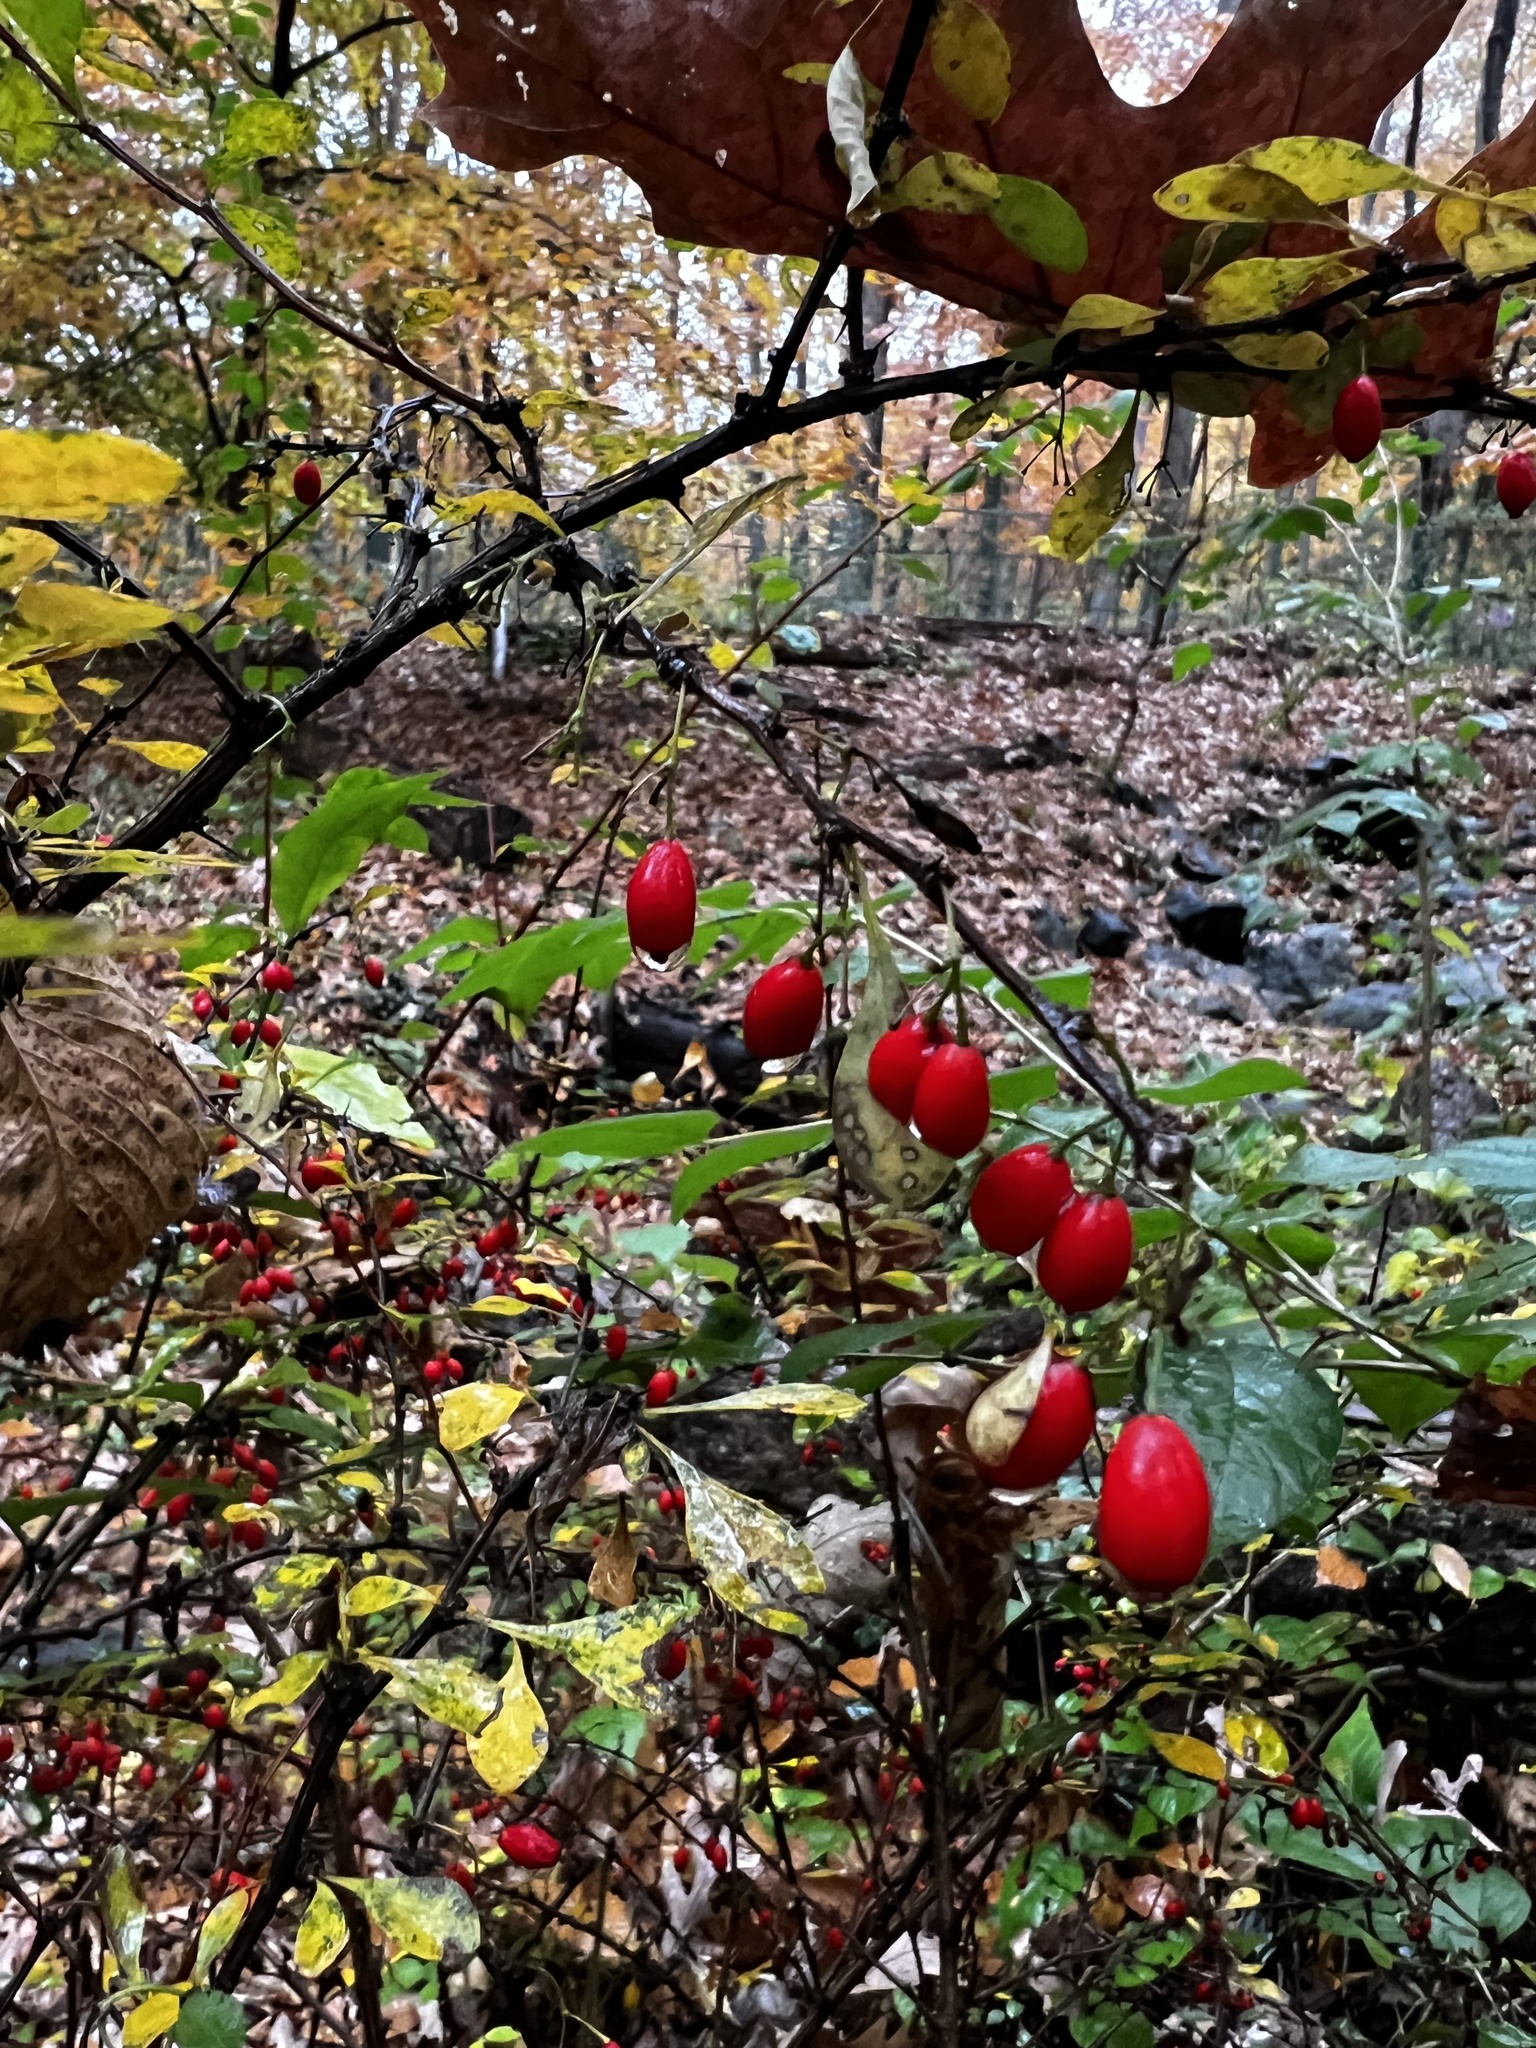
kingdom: Plantae
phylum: Tracheophyta
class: Magnoliopsida
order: Ranunculales
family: Berberidaceae
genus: Berberis
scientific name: Berberis thunbergii
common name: Japanese barberry
